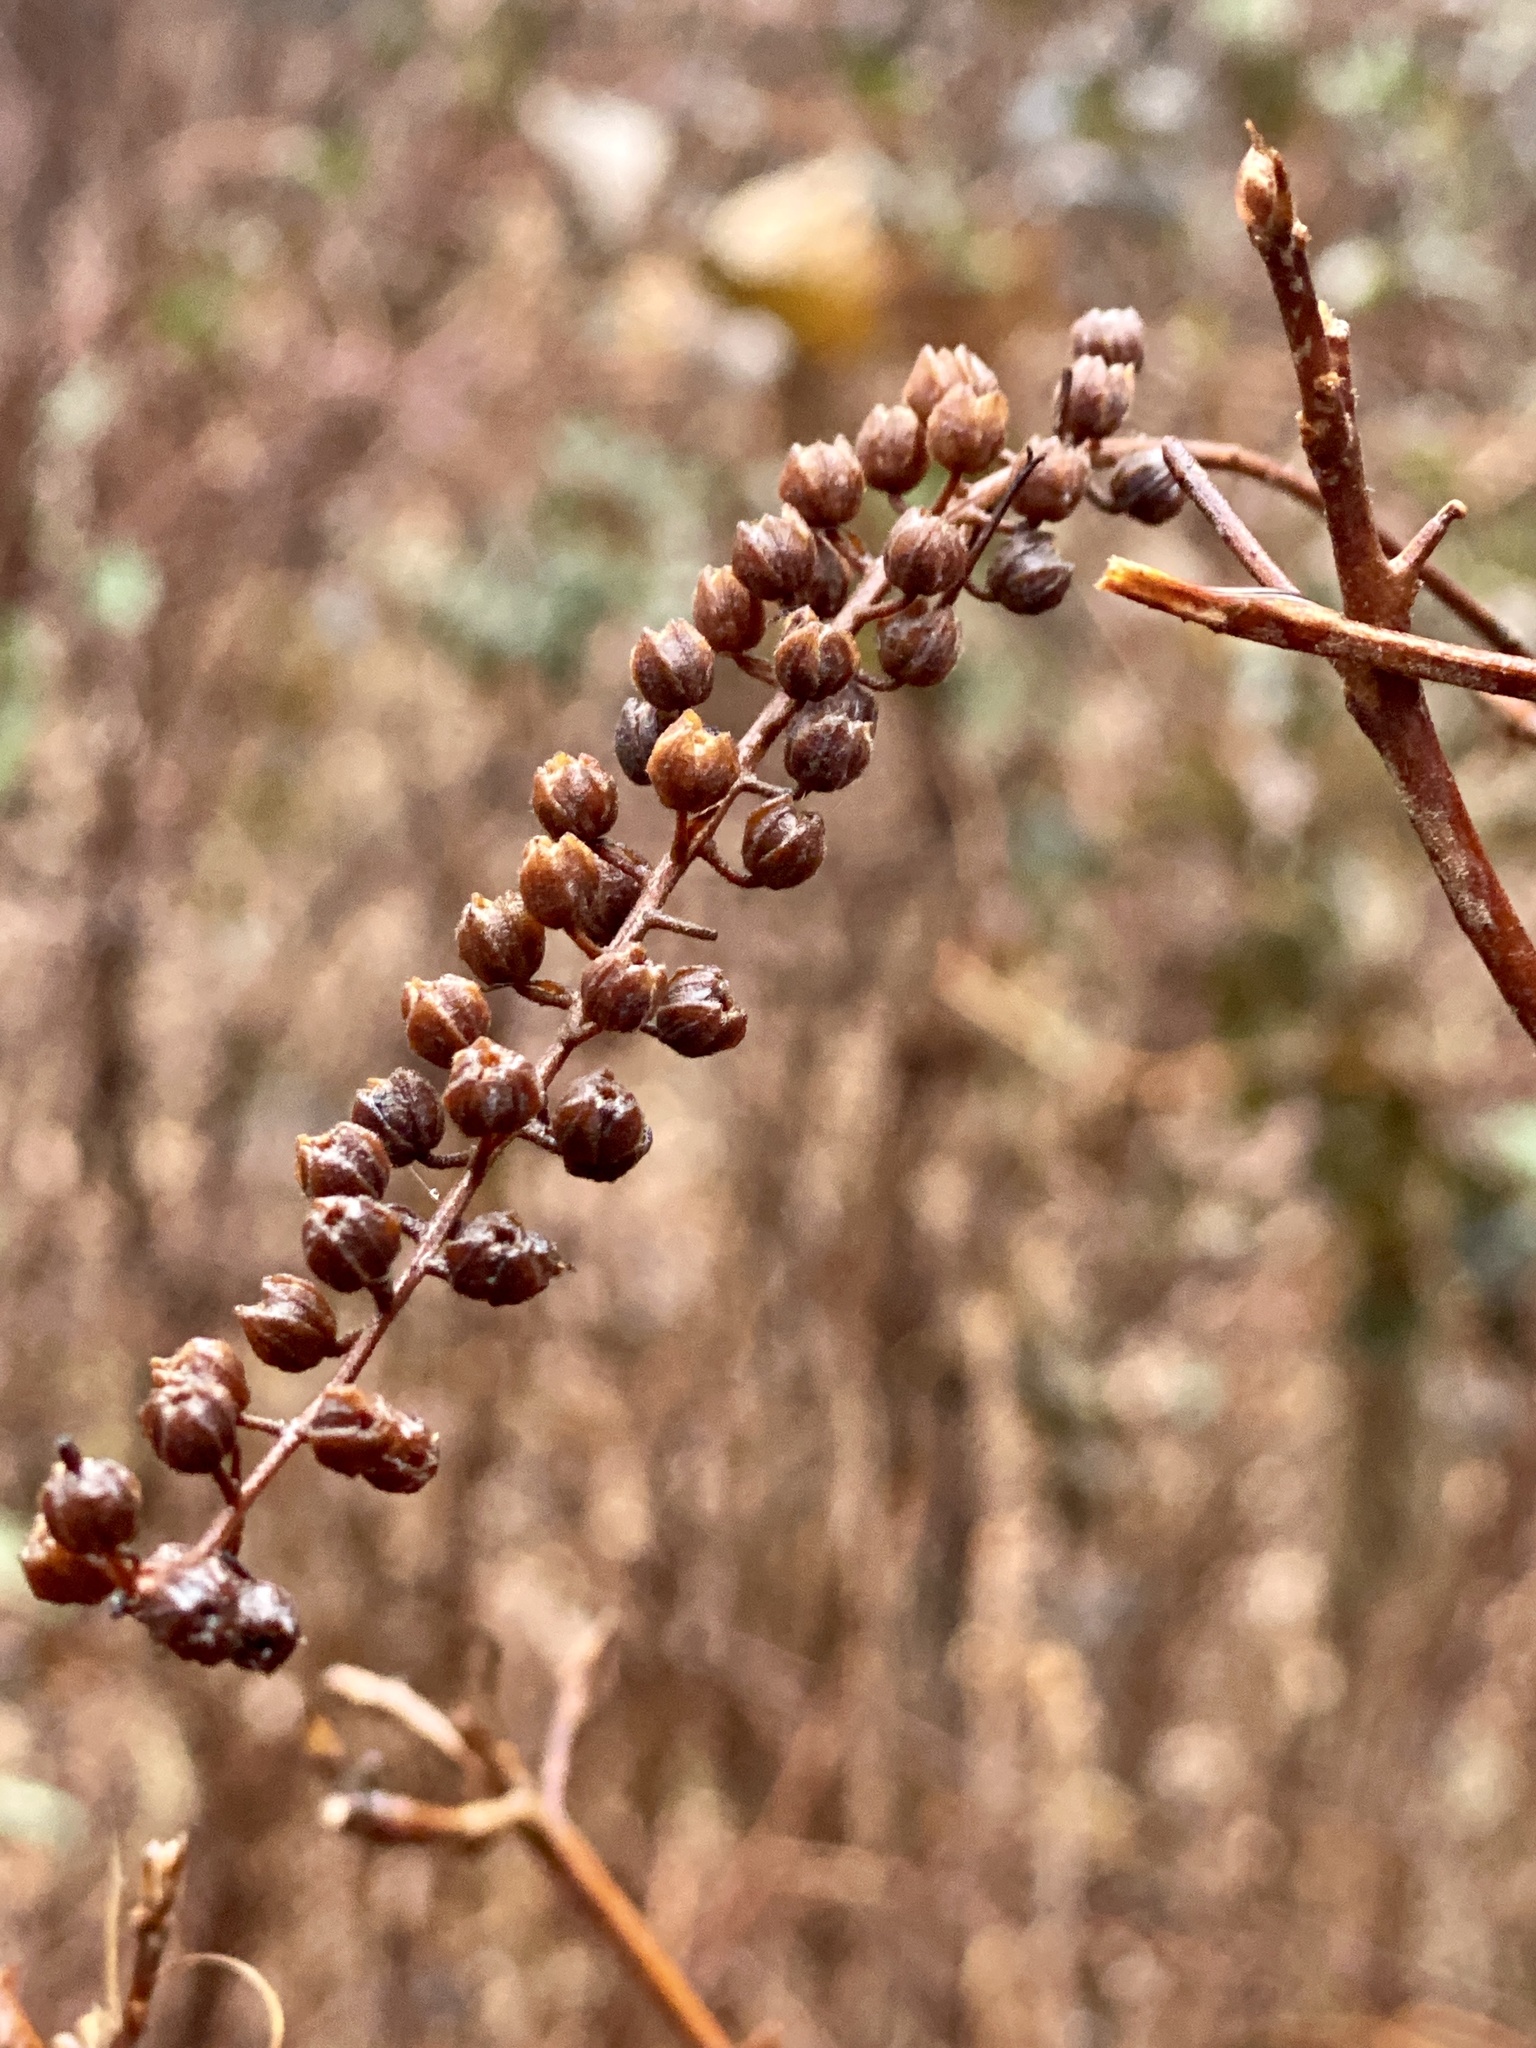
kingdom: Plantae
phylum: Tracheophyta
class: Magnoliopsida
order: Ericales
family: Clethraceae
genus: Clethra
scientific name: Clethra alnifolia
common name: Sweet pepperbush
